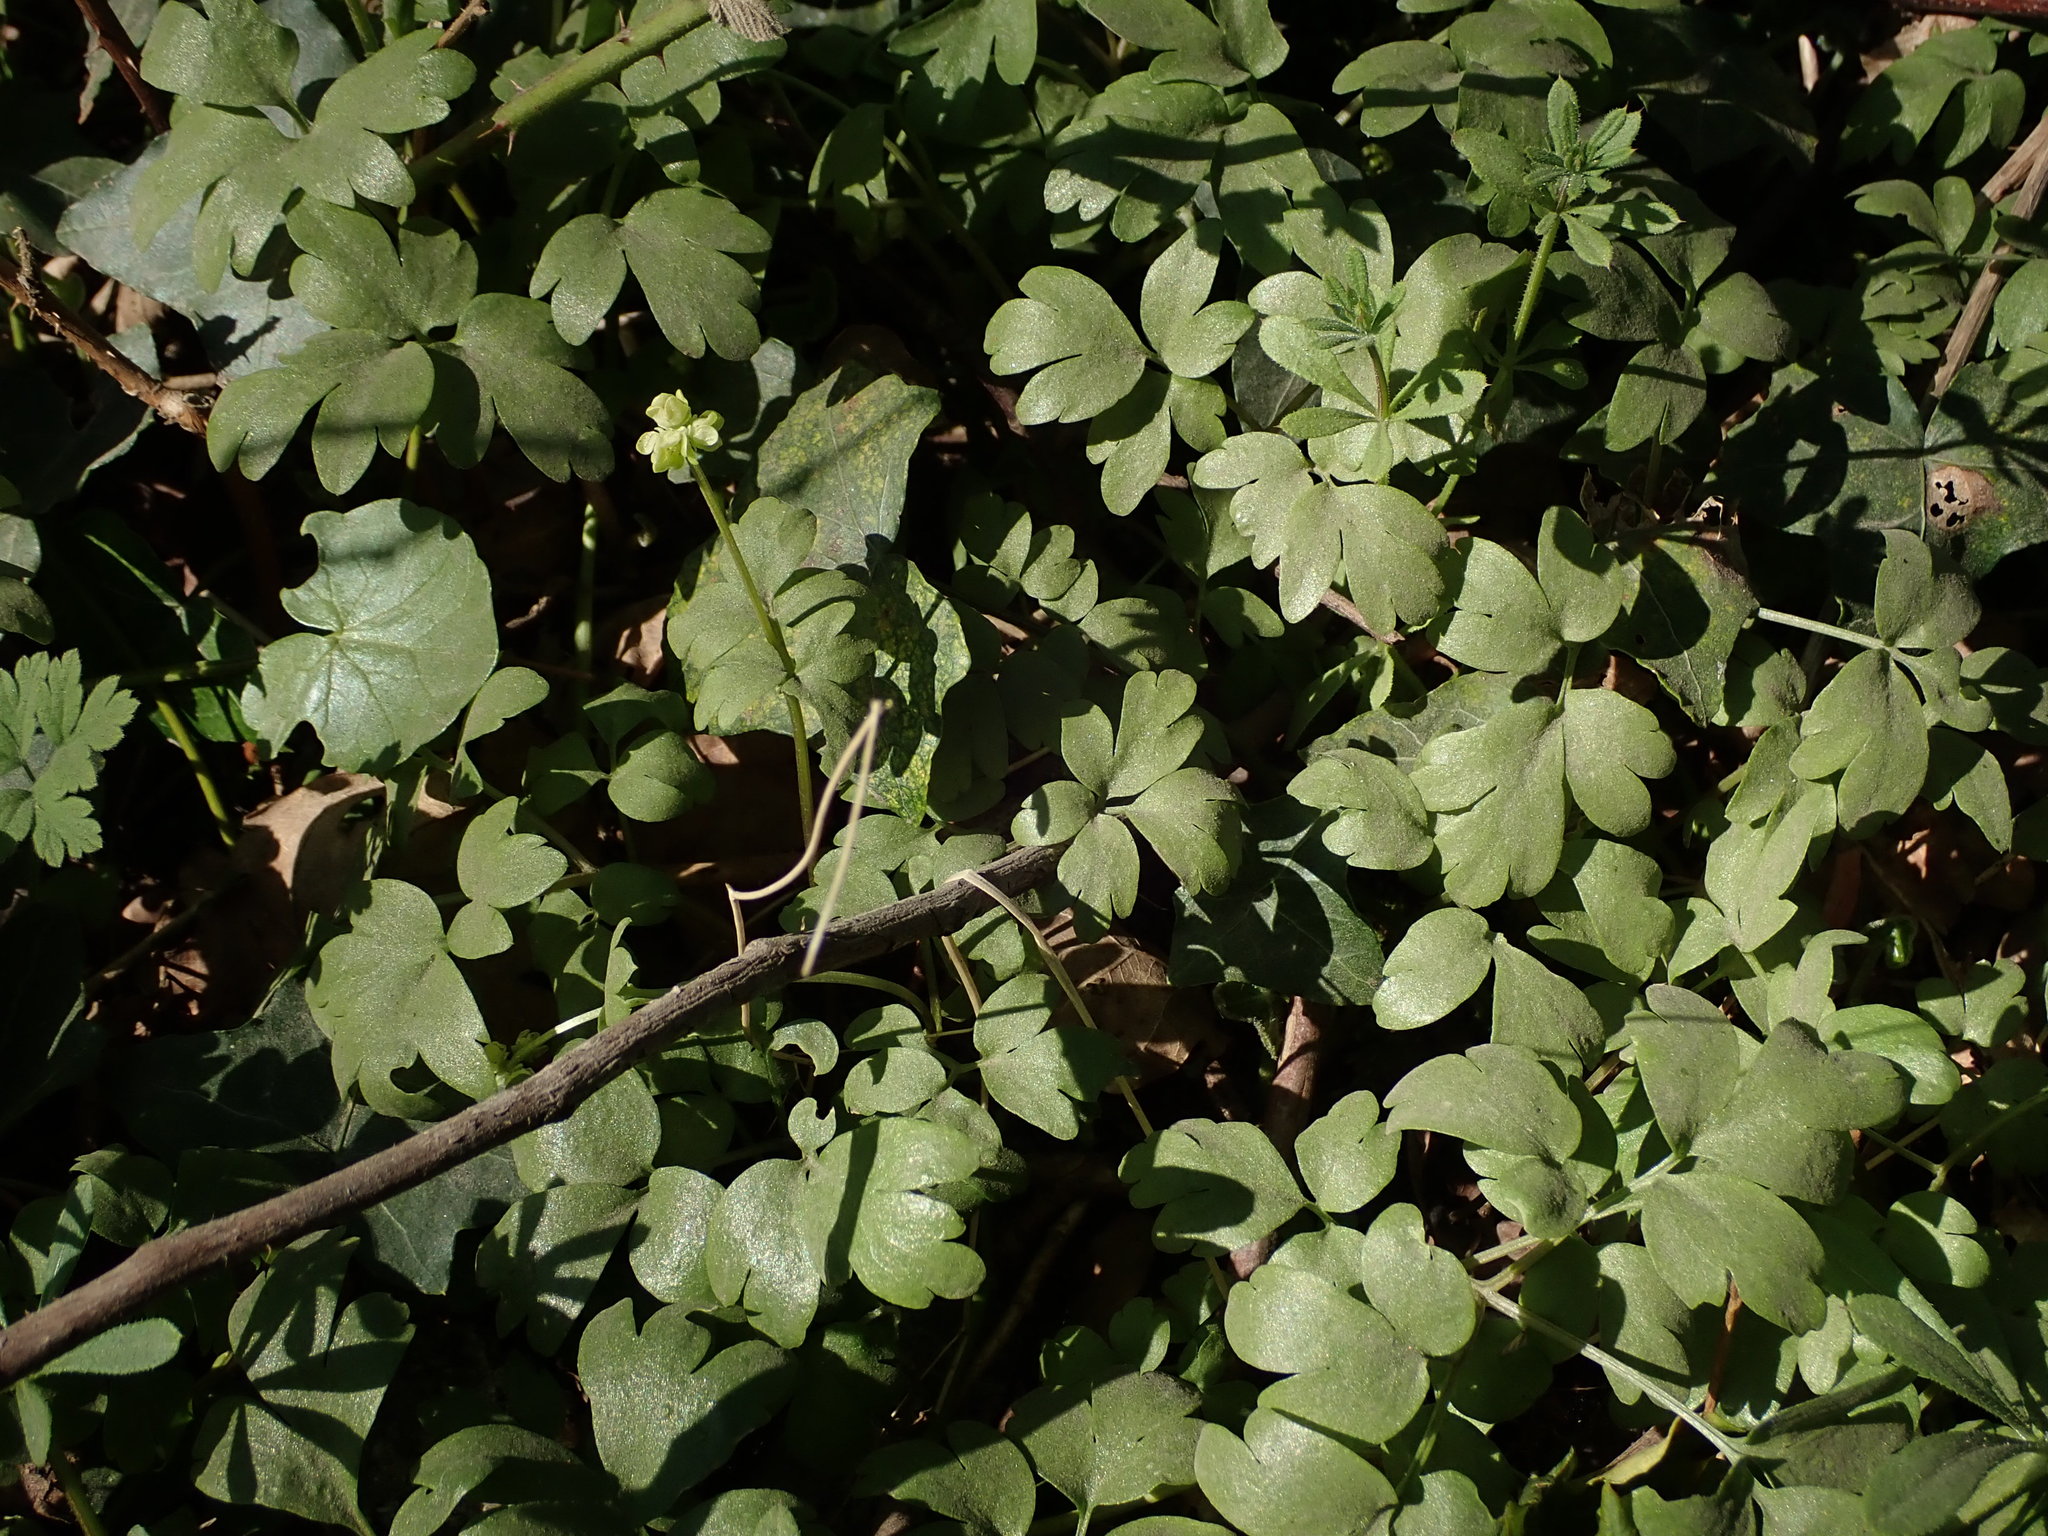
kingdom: Plantae
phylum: Tracheophyta
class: Magnoliopsida
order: Dipsacales
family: Viburnaceae
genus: Adoxa
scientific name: Adoxa moschatellina
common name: Moschatel
